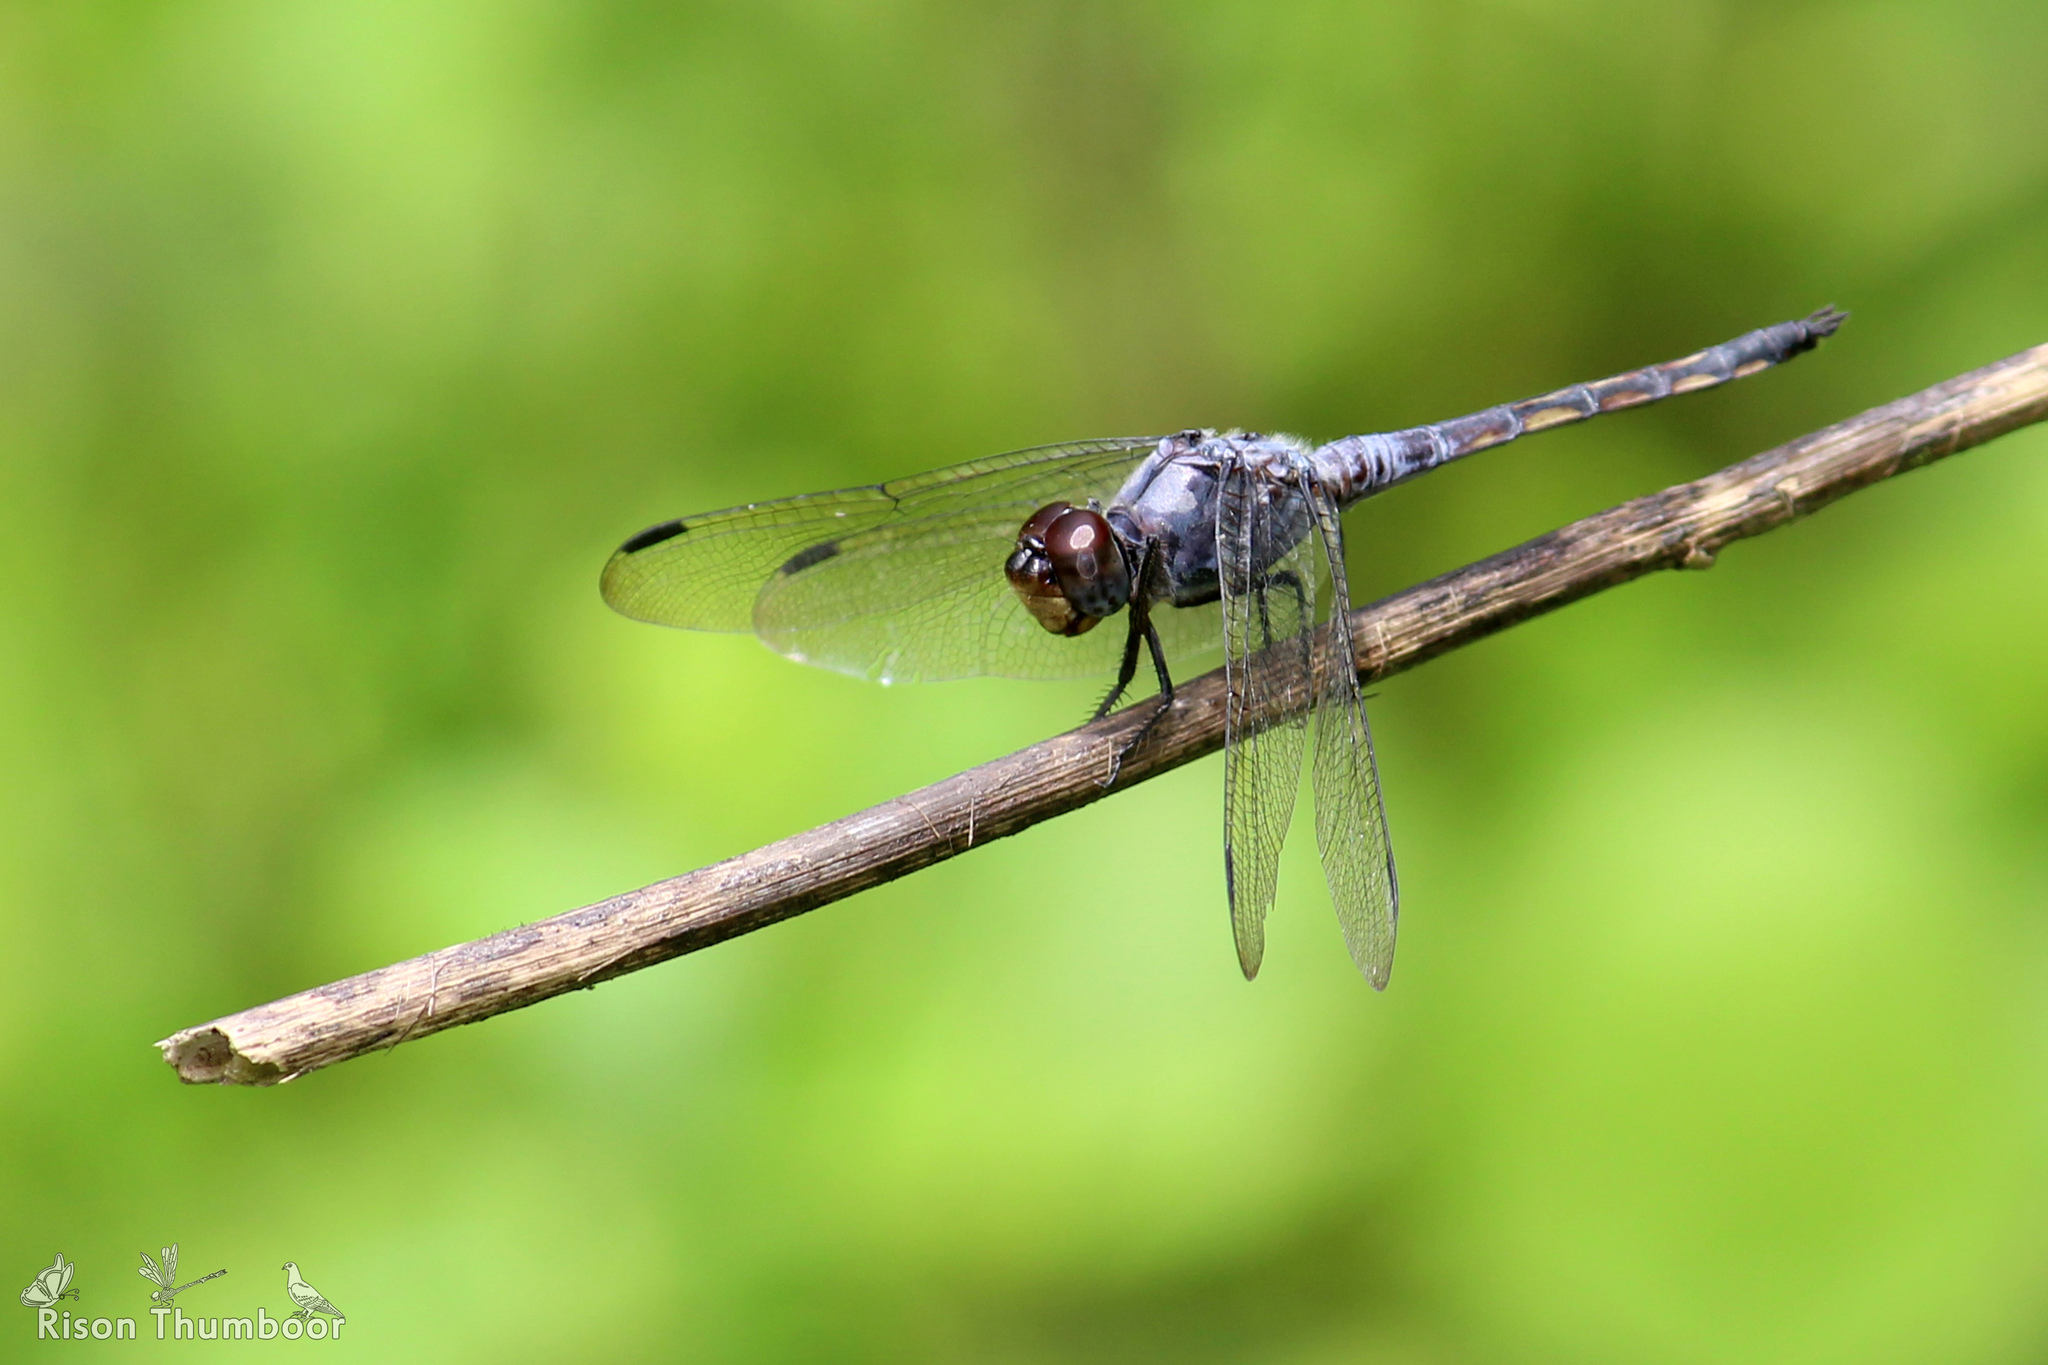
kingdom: Animalia
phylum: Arthropoda
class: Insecta
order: Odonata
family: Libellulidae
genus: Potamarcha
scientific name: Potamarcha congener
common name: Blue chaser
